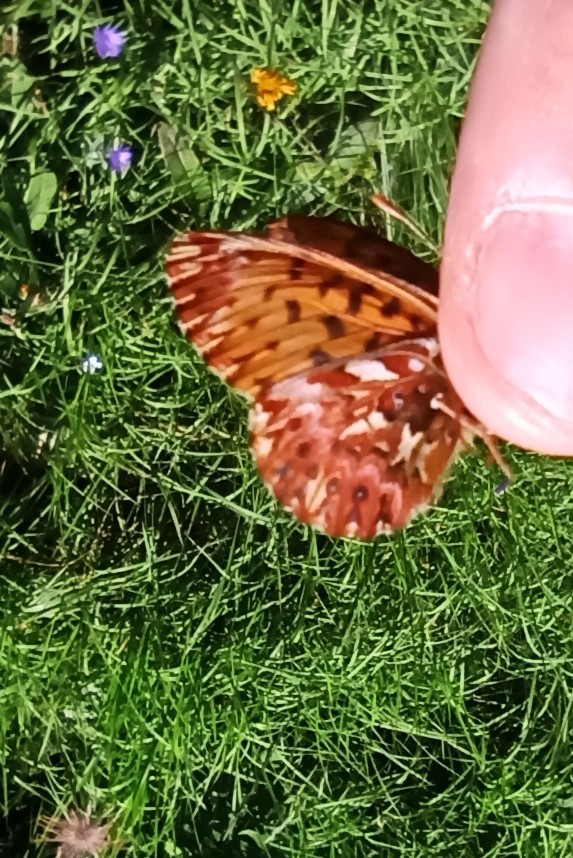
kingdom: Animalia
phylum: Arthropoda
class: Insecta
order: Lepidoptera
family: Nymphalidae
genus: Boloria
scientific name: Boloria titania
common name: Titania's fritillary
